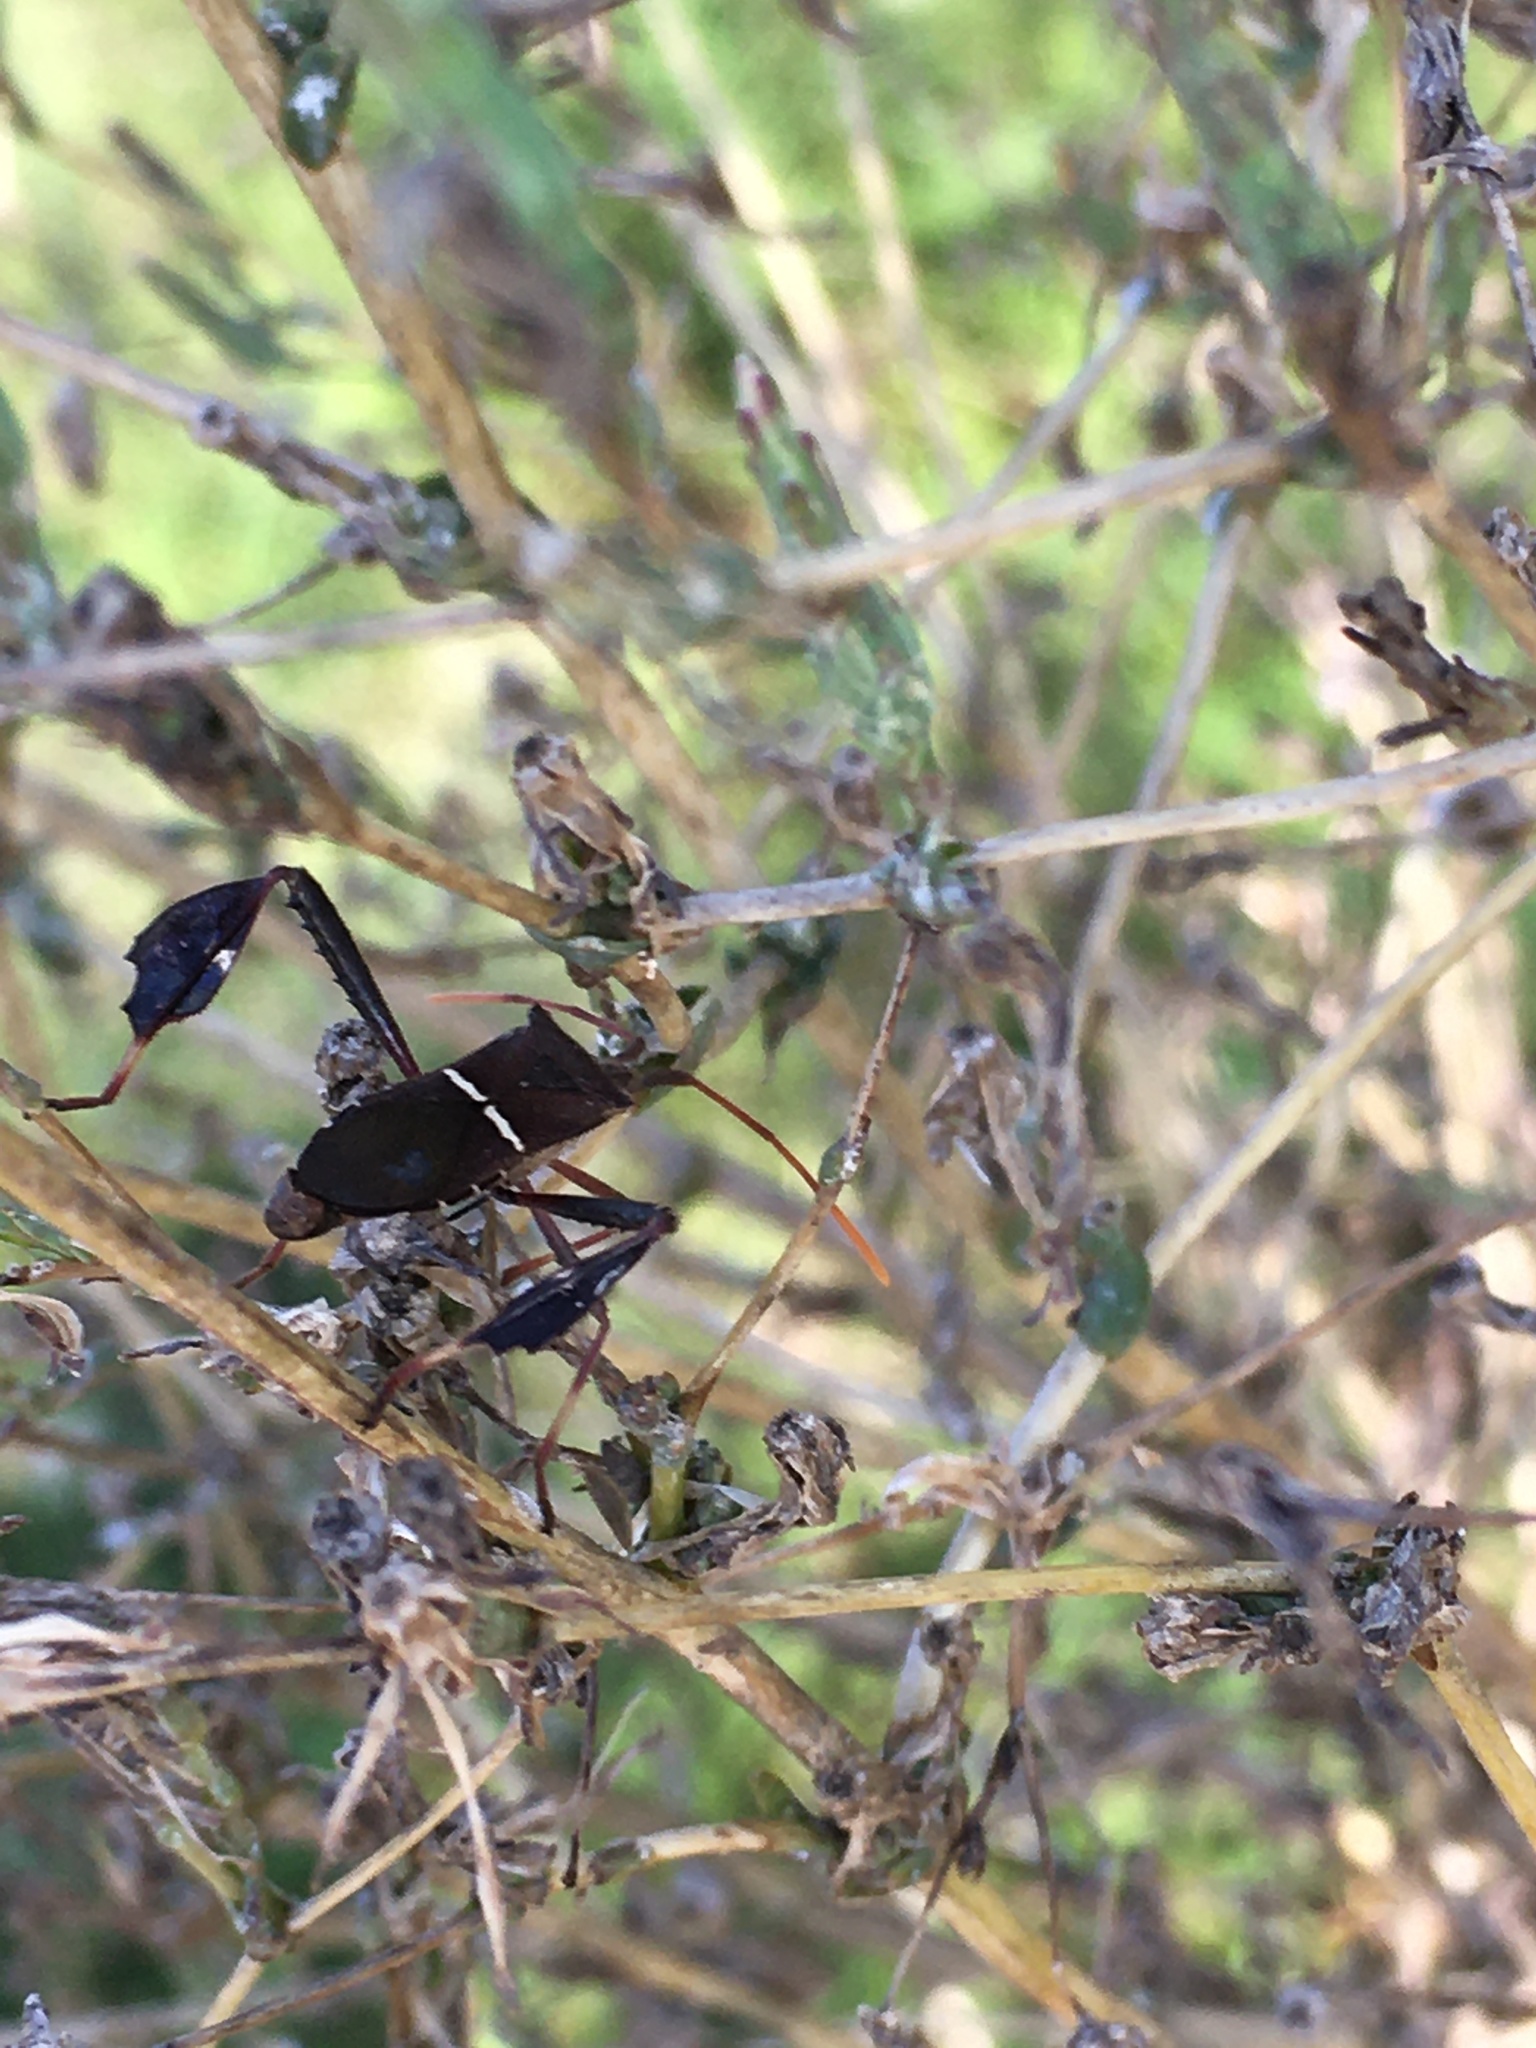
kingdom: Animalia
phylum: Arthropoda
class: Insecta
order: Hemiptera
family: Coreidae
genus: Leptoglossus
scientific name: Leptoglossus phyllopus
